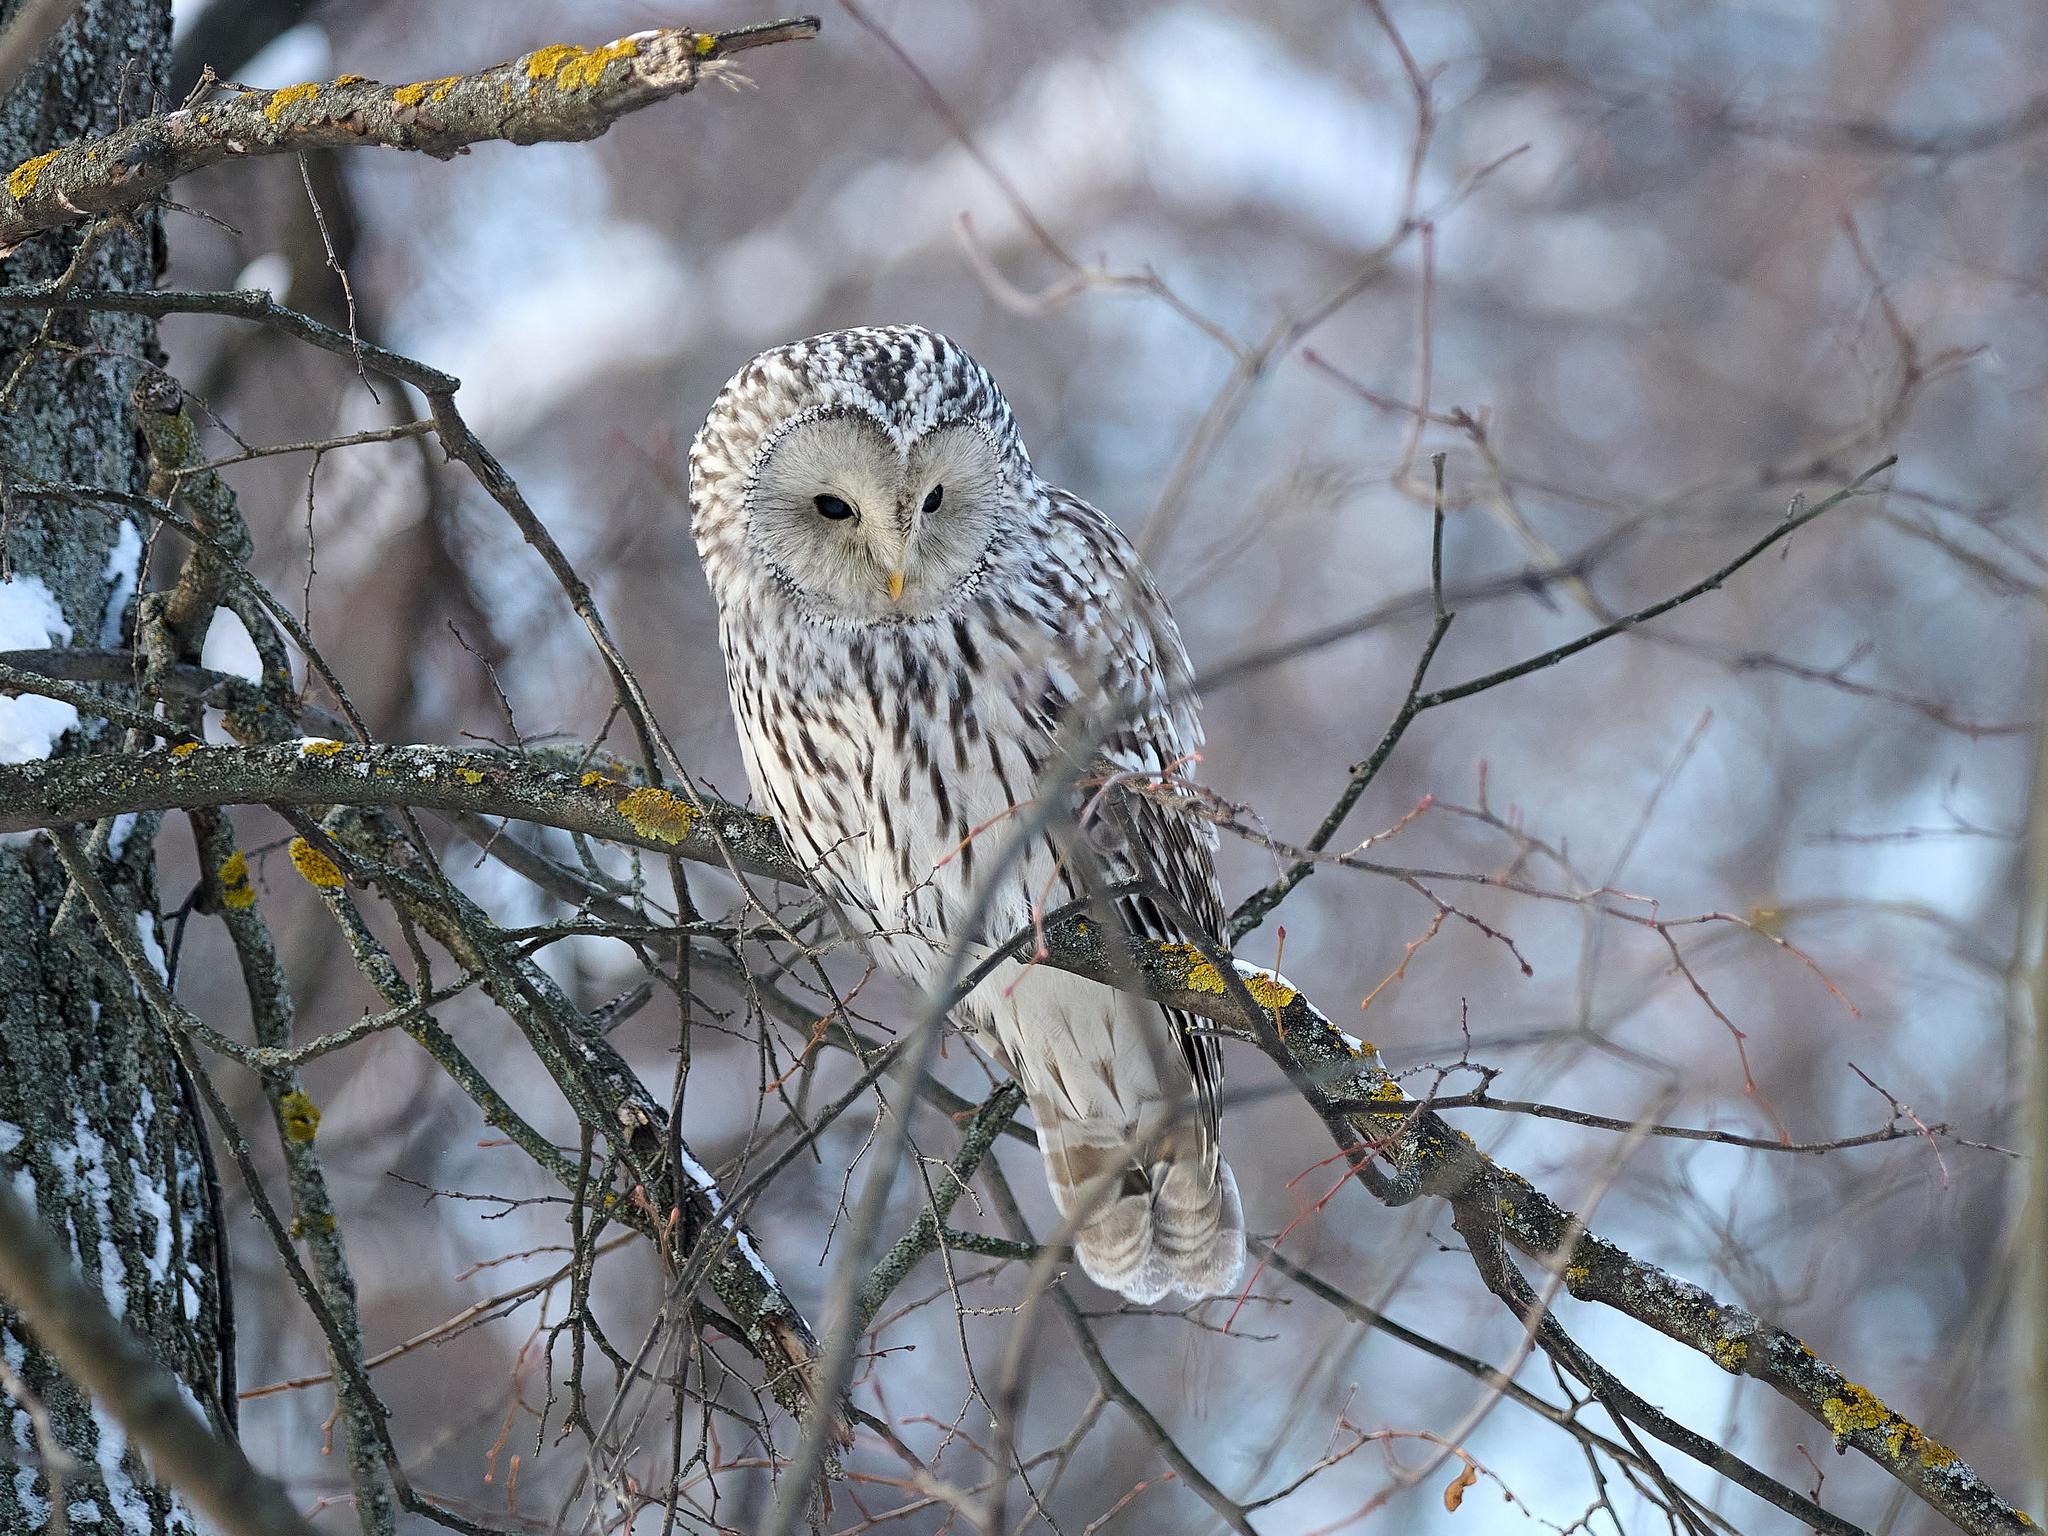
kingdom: Animalia
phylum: Chordata
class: Aves
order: Strigiformes
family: Strigidae
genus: Strix
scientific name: Strix uralensis
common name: Ural owl
